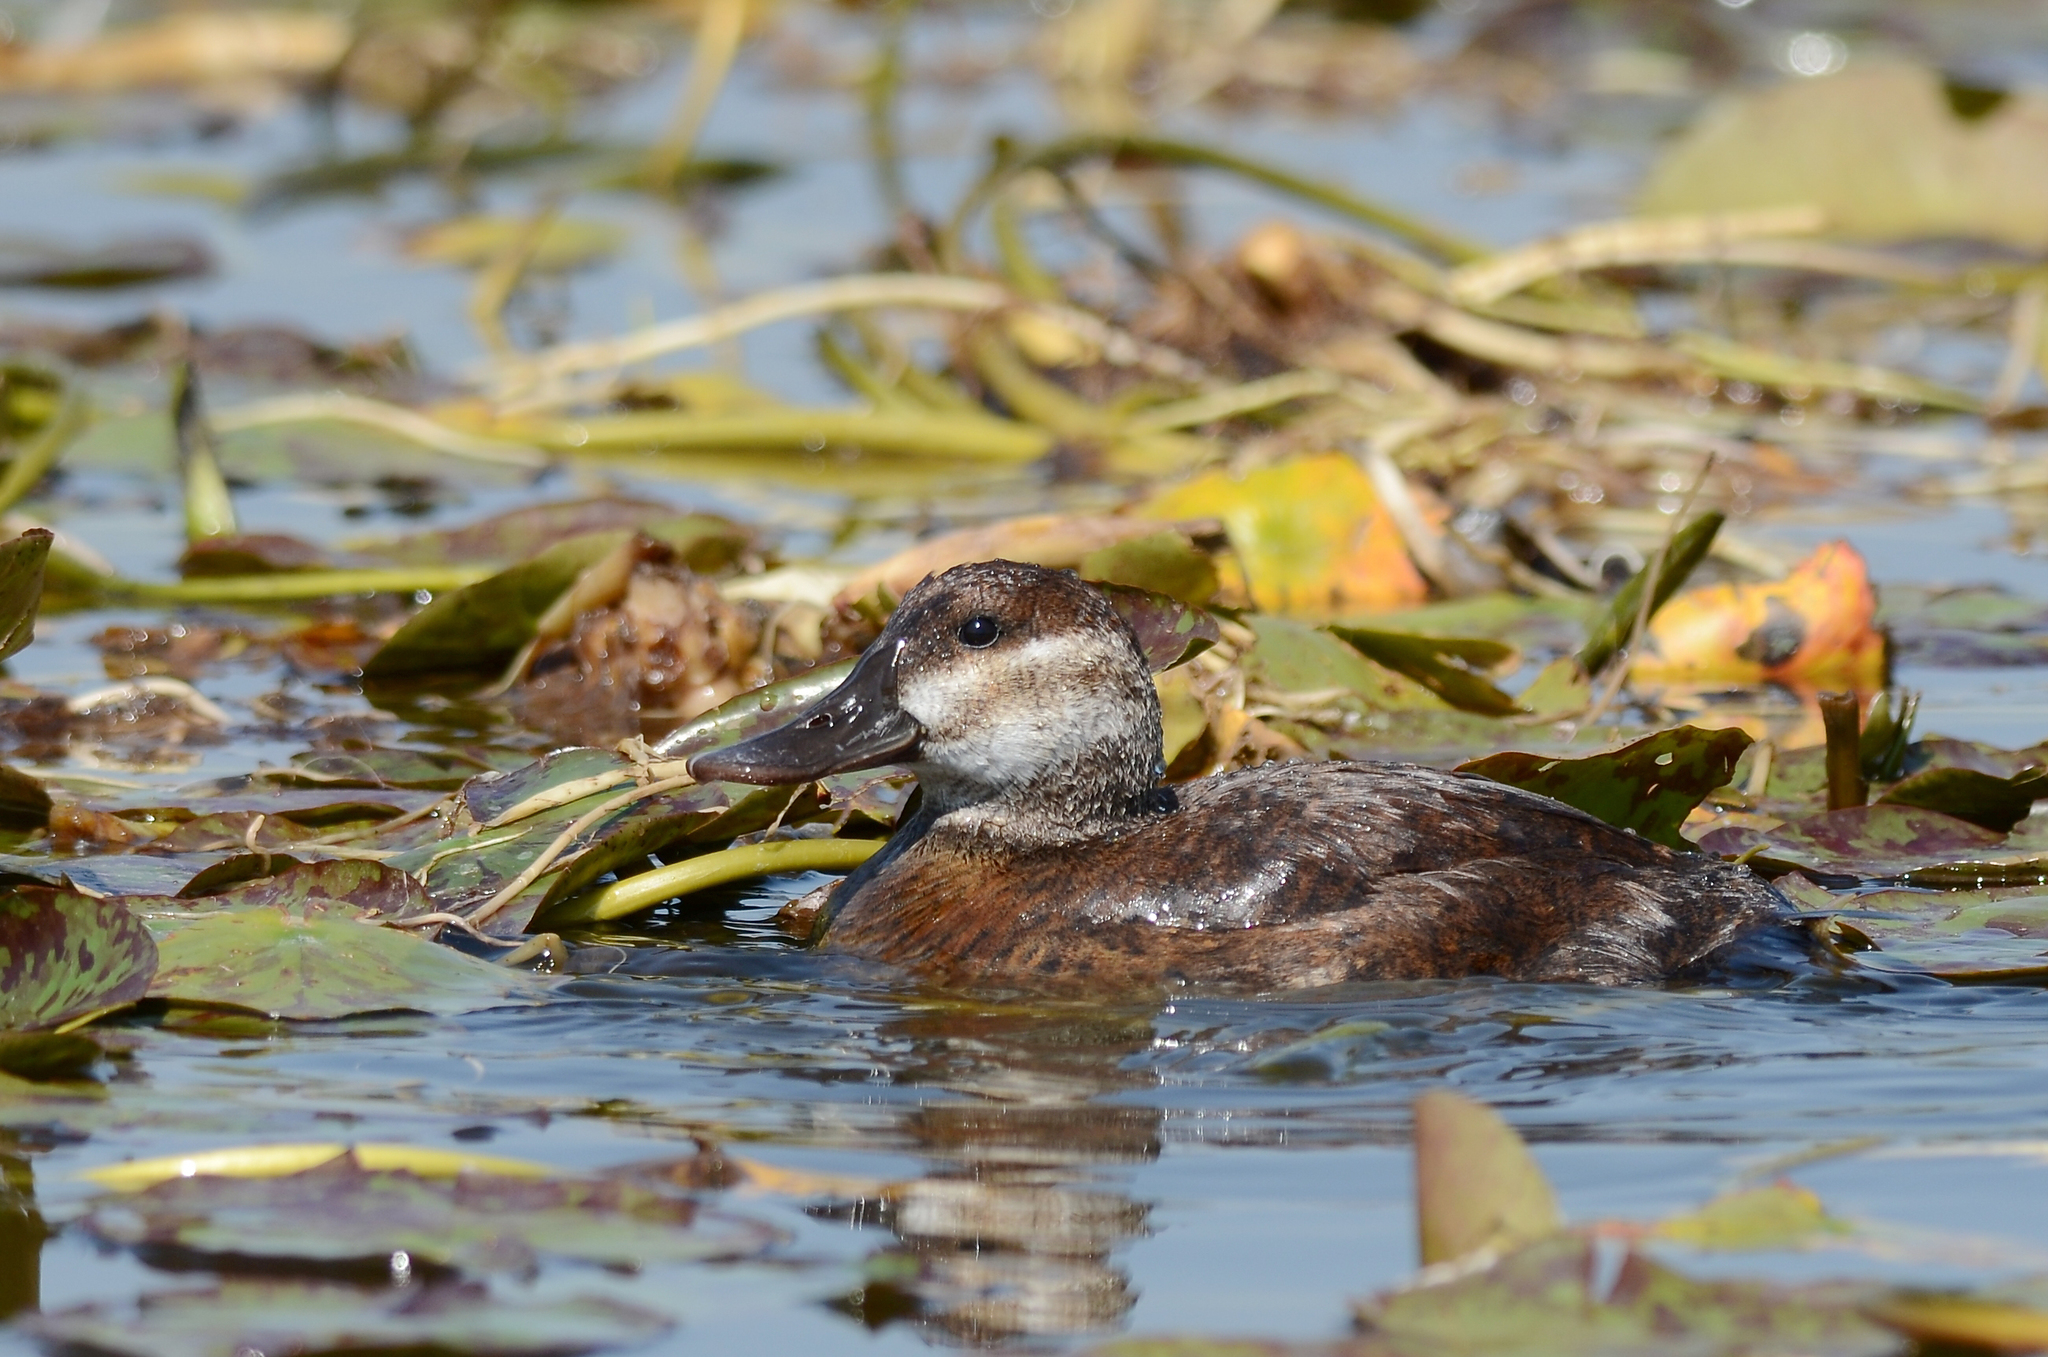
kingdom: Animalia
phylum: Chordata
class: Aves
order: Anseriformes
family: Anatidae
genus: Oxyura
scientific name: Oxyura jamaicensis
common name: Ruddy duck
